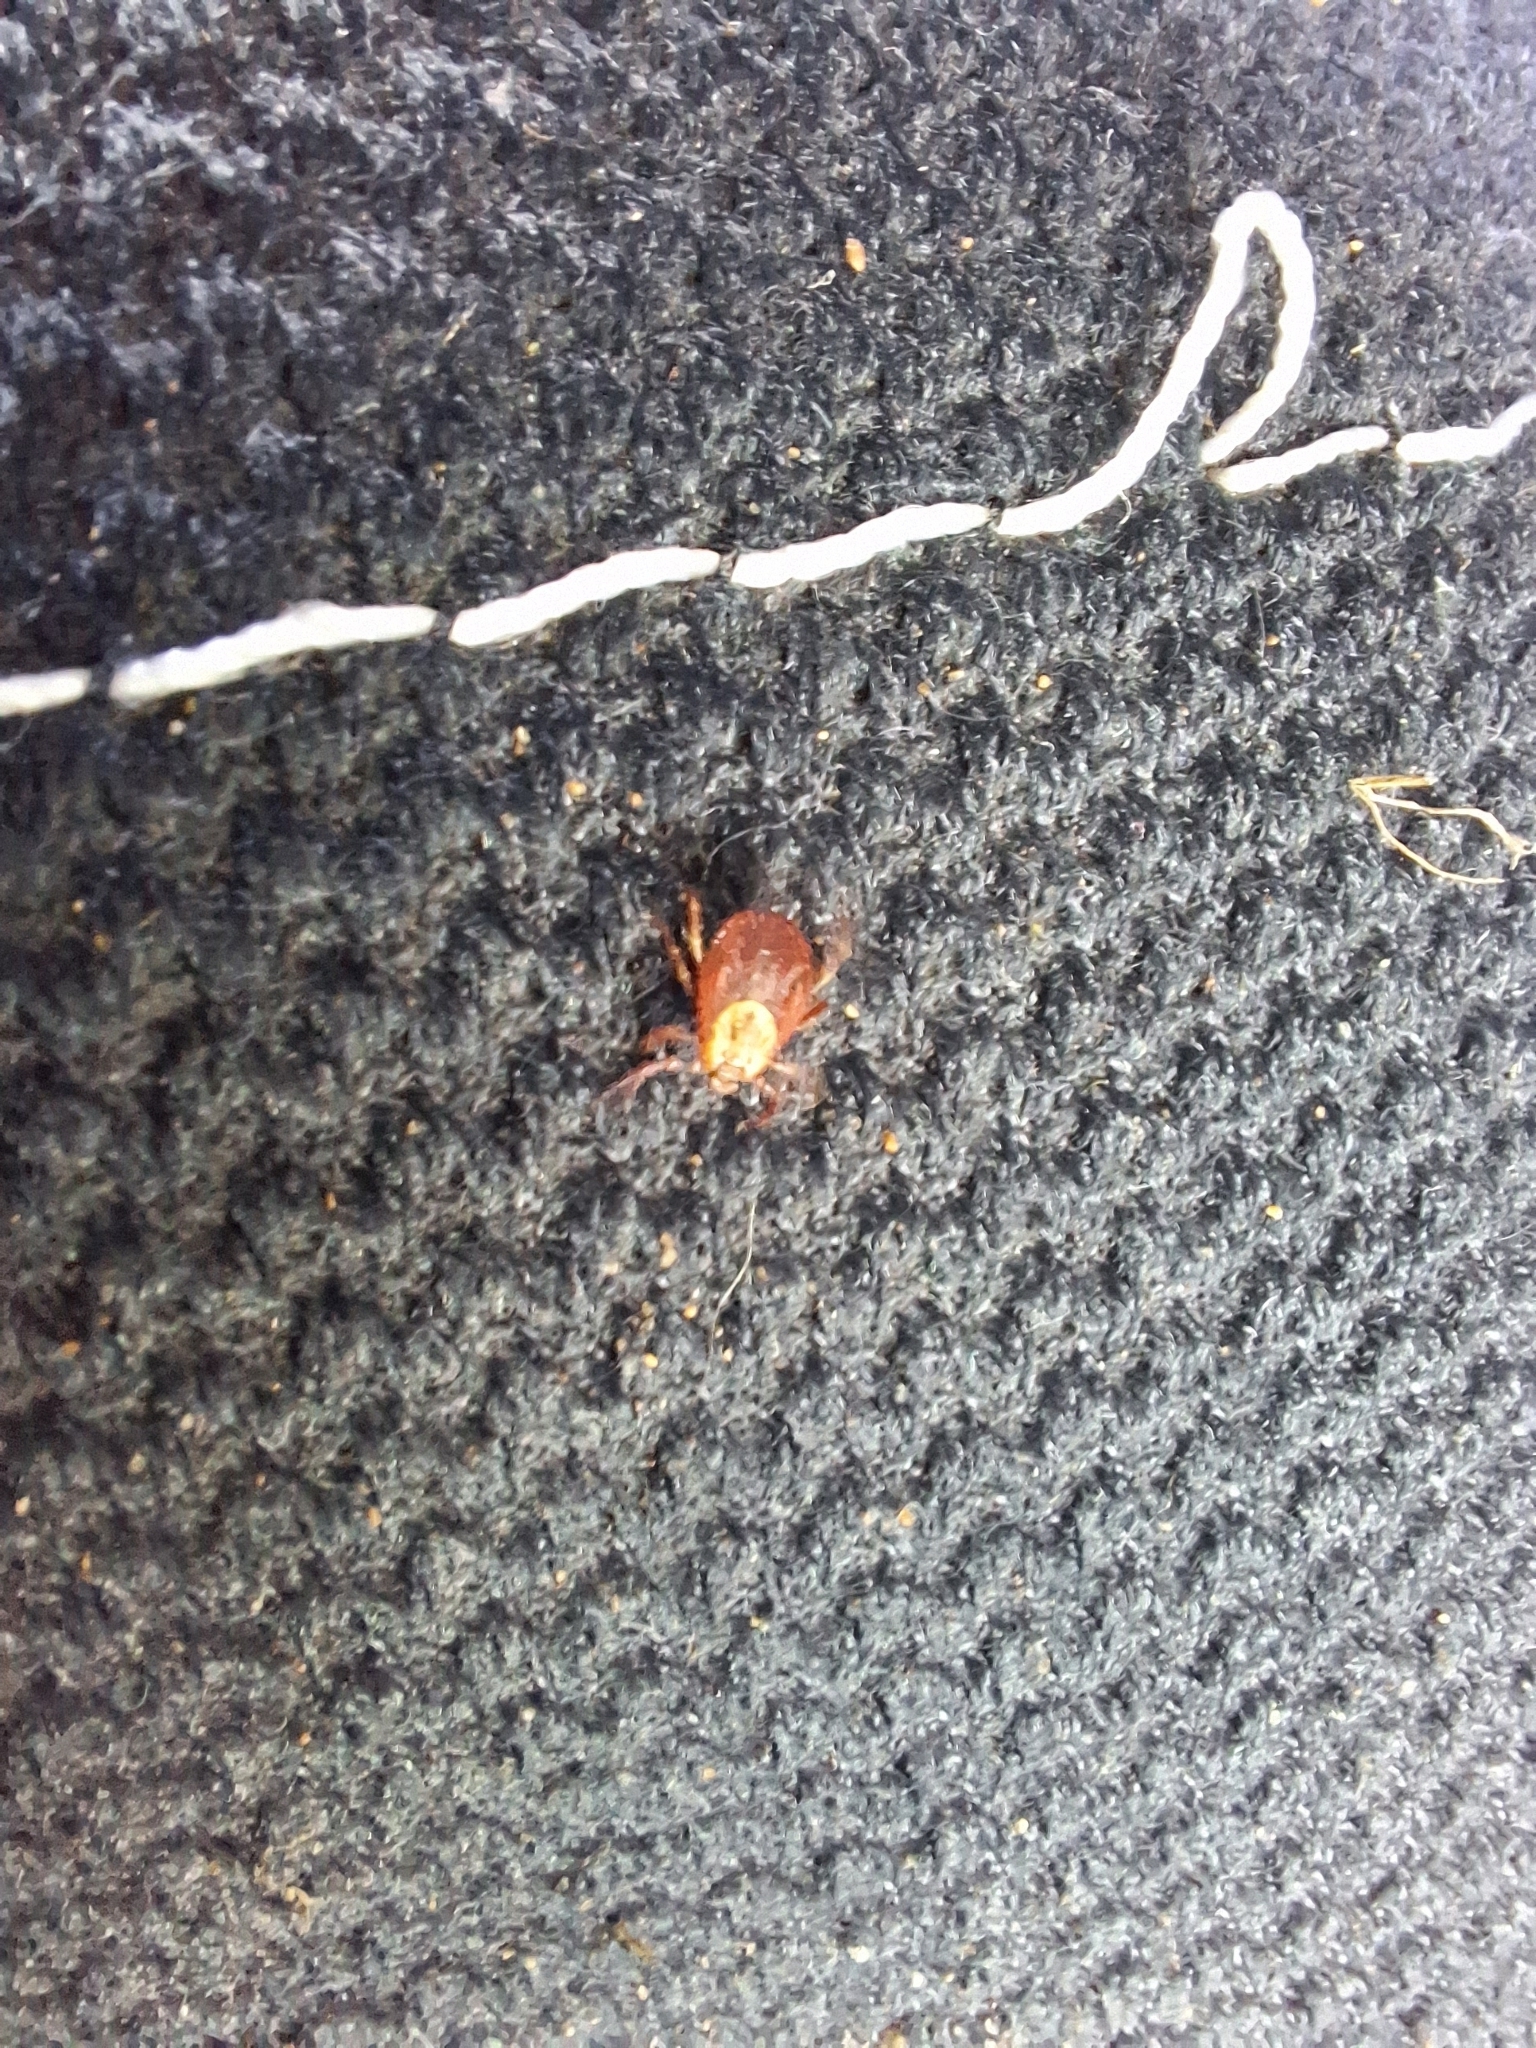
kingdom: Animalia
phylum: Arthropoda
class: Arachnida
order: Ixodida
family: Ixodidae
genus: Dermacentor
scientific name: Dermacentor reticulatus
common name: Ornate cow tick
